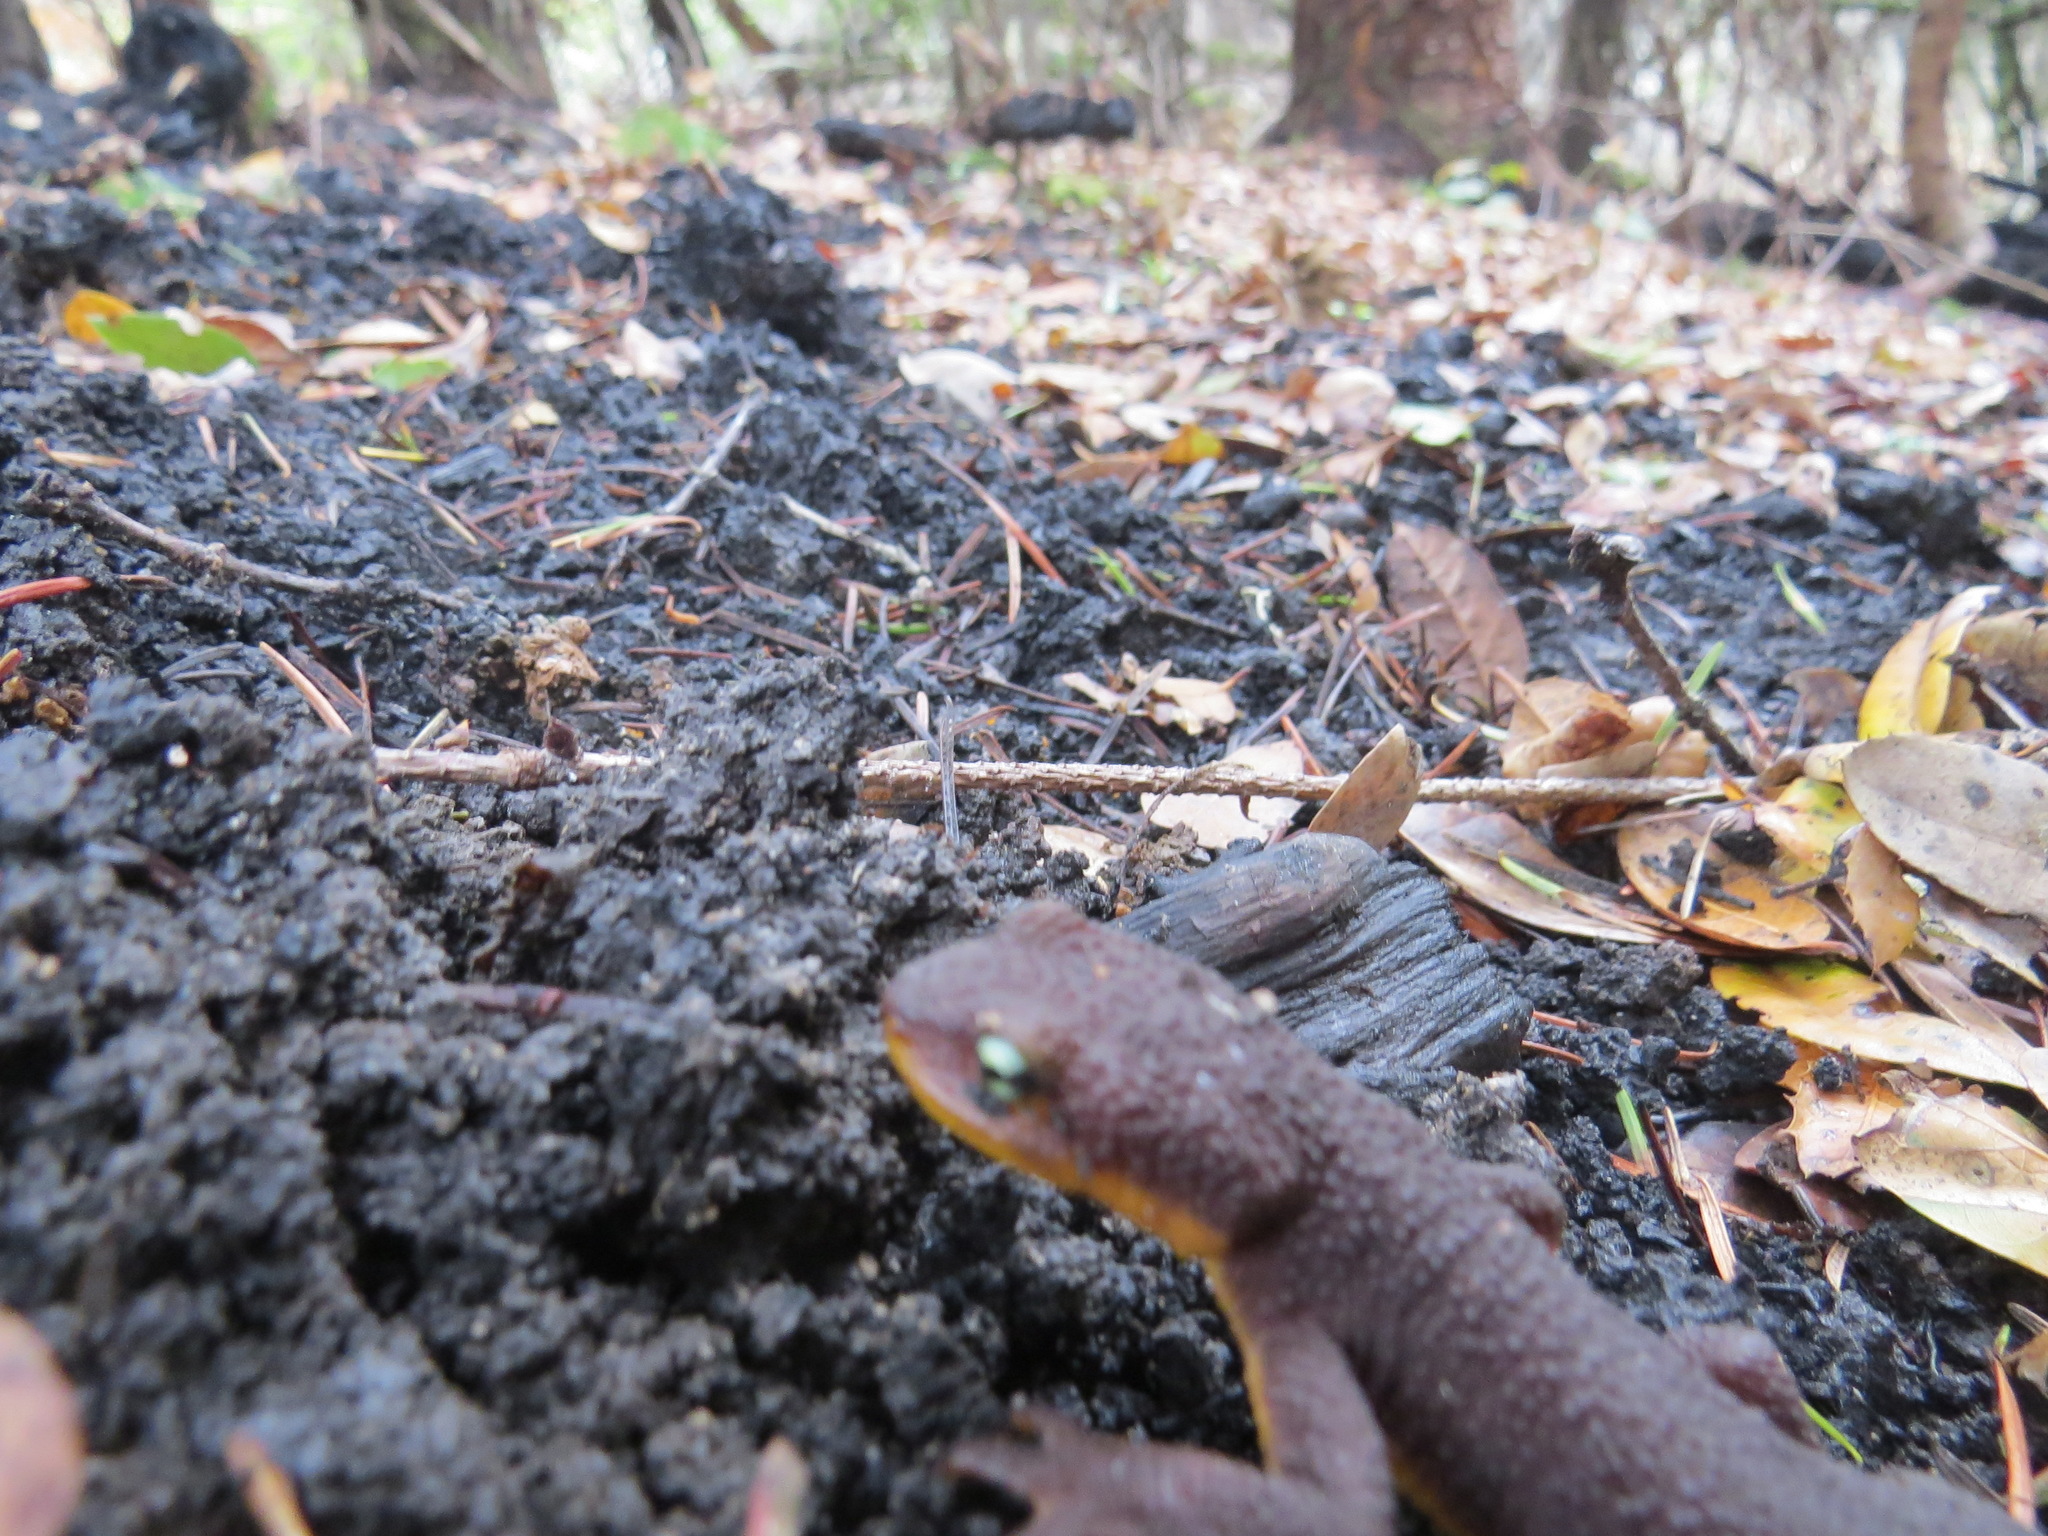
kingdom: Animalia
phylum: Chordata
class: Amphibia
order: Caudata
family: Salamandridae
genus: Taricha
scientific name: Taricha granulosa
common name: Roughskin newt
